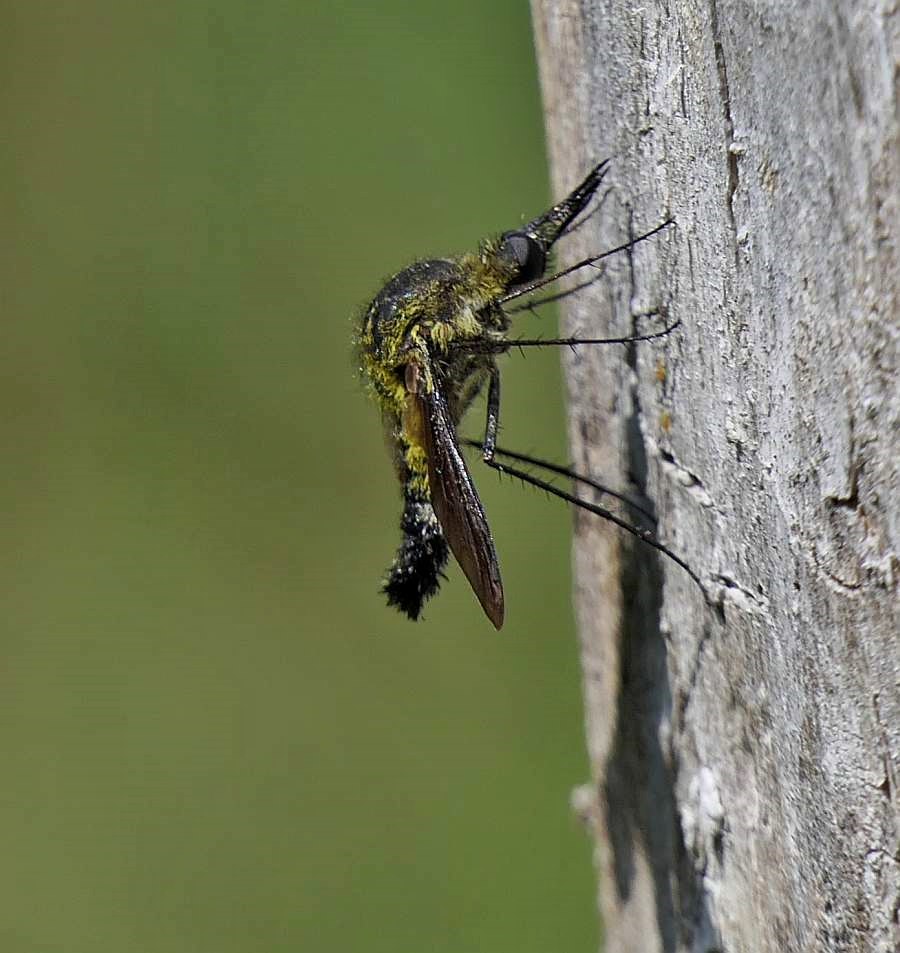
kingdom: Animalia
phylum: Arthropoda
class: Insecta
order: Diptera
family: Bombyliidae
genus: Lepidophora
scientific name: Lepidophora lutea
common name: Hunchback bee fly
